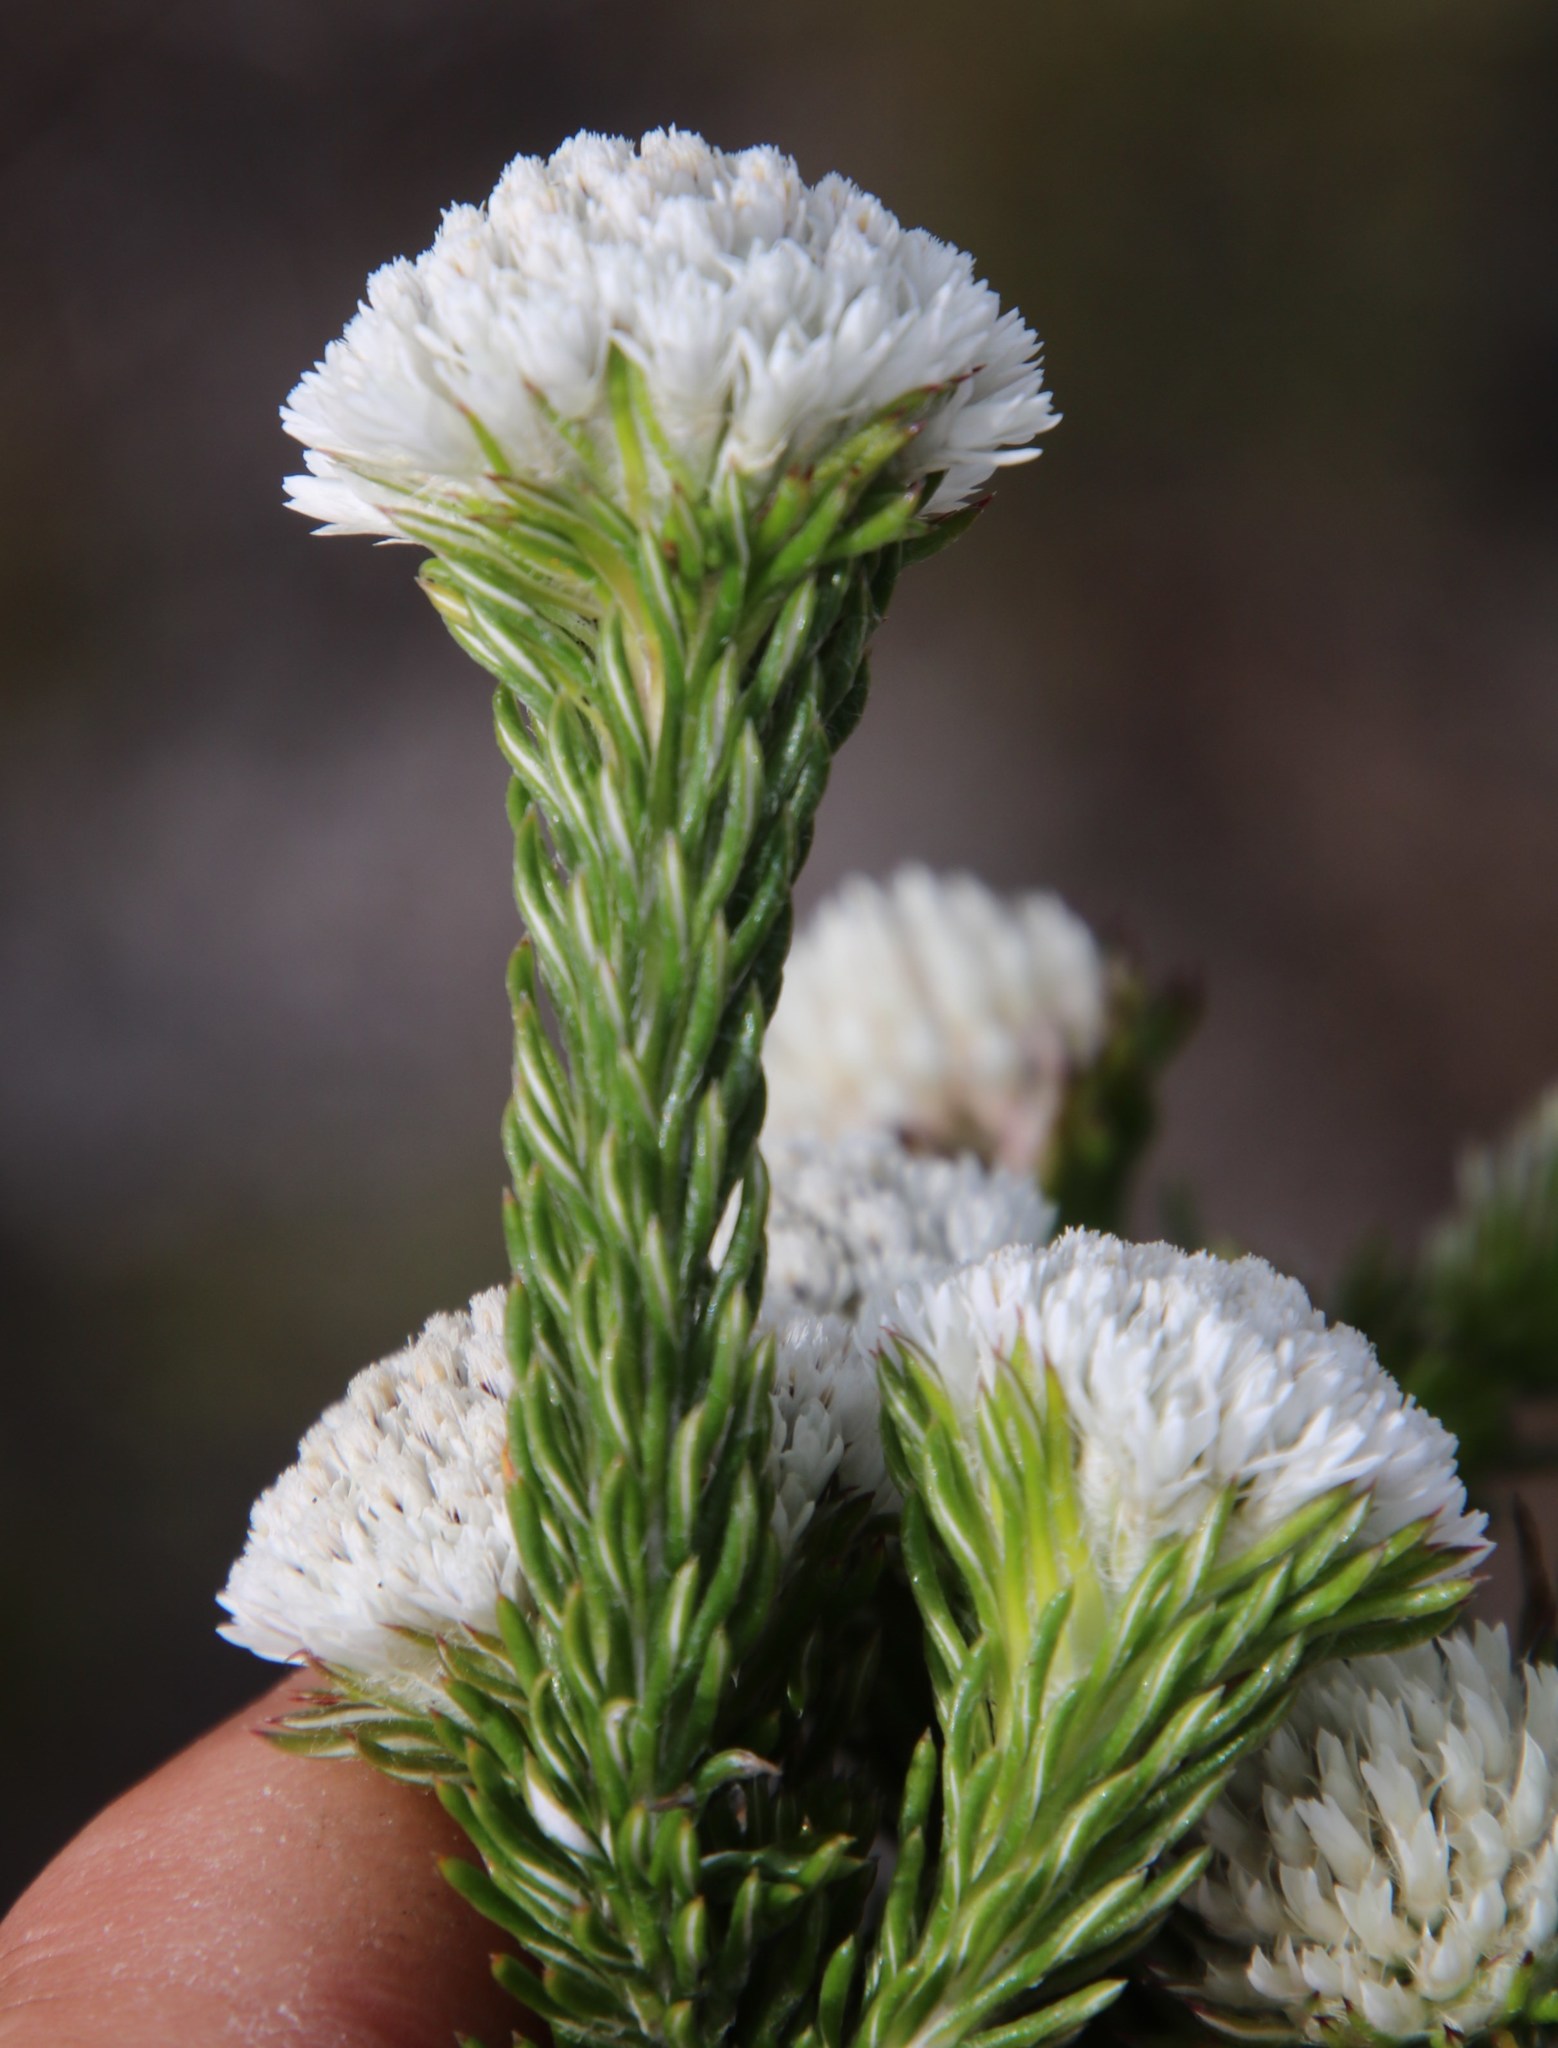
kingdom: Plantae
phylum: Tracheophyta
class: Magnoliopsida
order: Asterales
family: Asteraceae
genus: Metalasia
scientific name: Metalasia compacta
